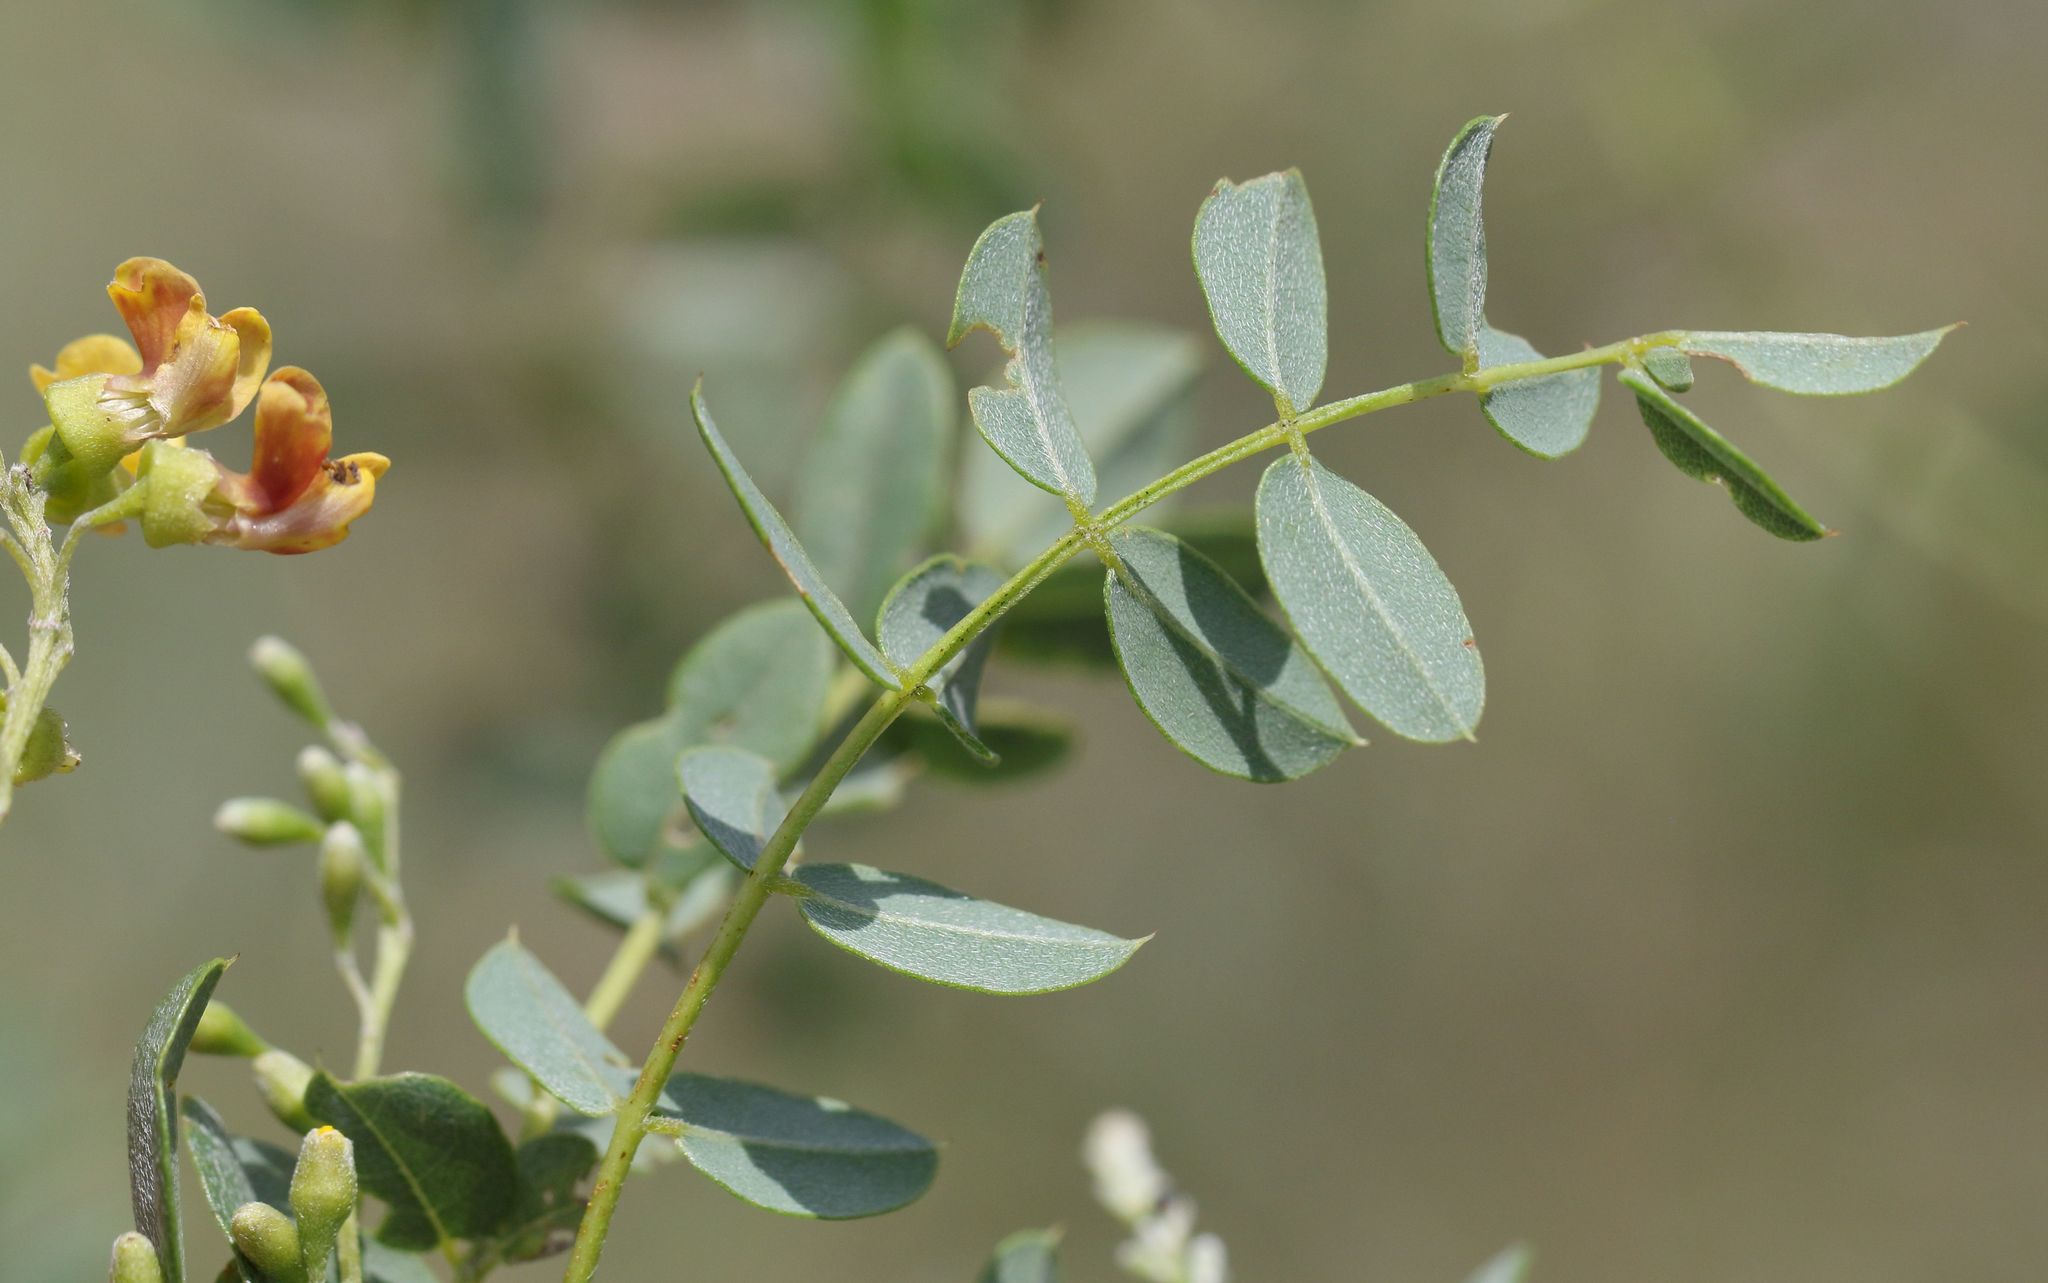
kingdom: Plantae
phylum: Tracheophyta
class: Magnoliopsida
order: Fabales
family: Fabaceae
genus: Calpurnia
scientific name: Calpurnia sericea
